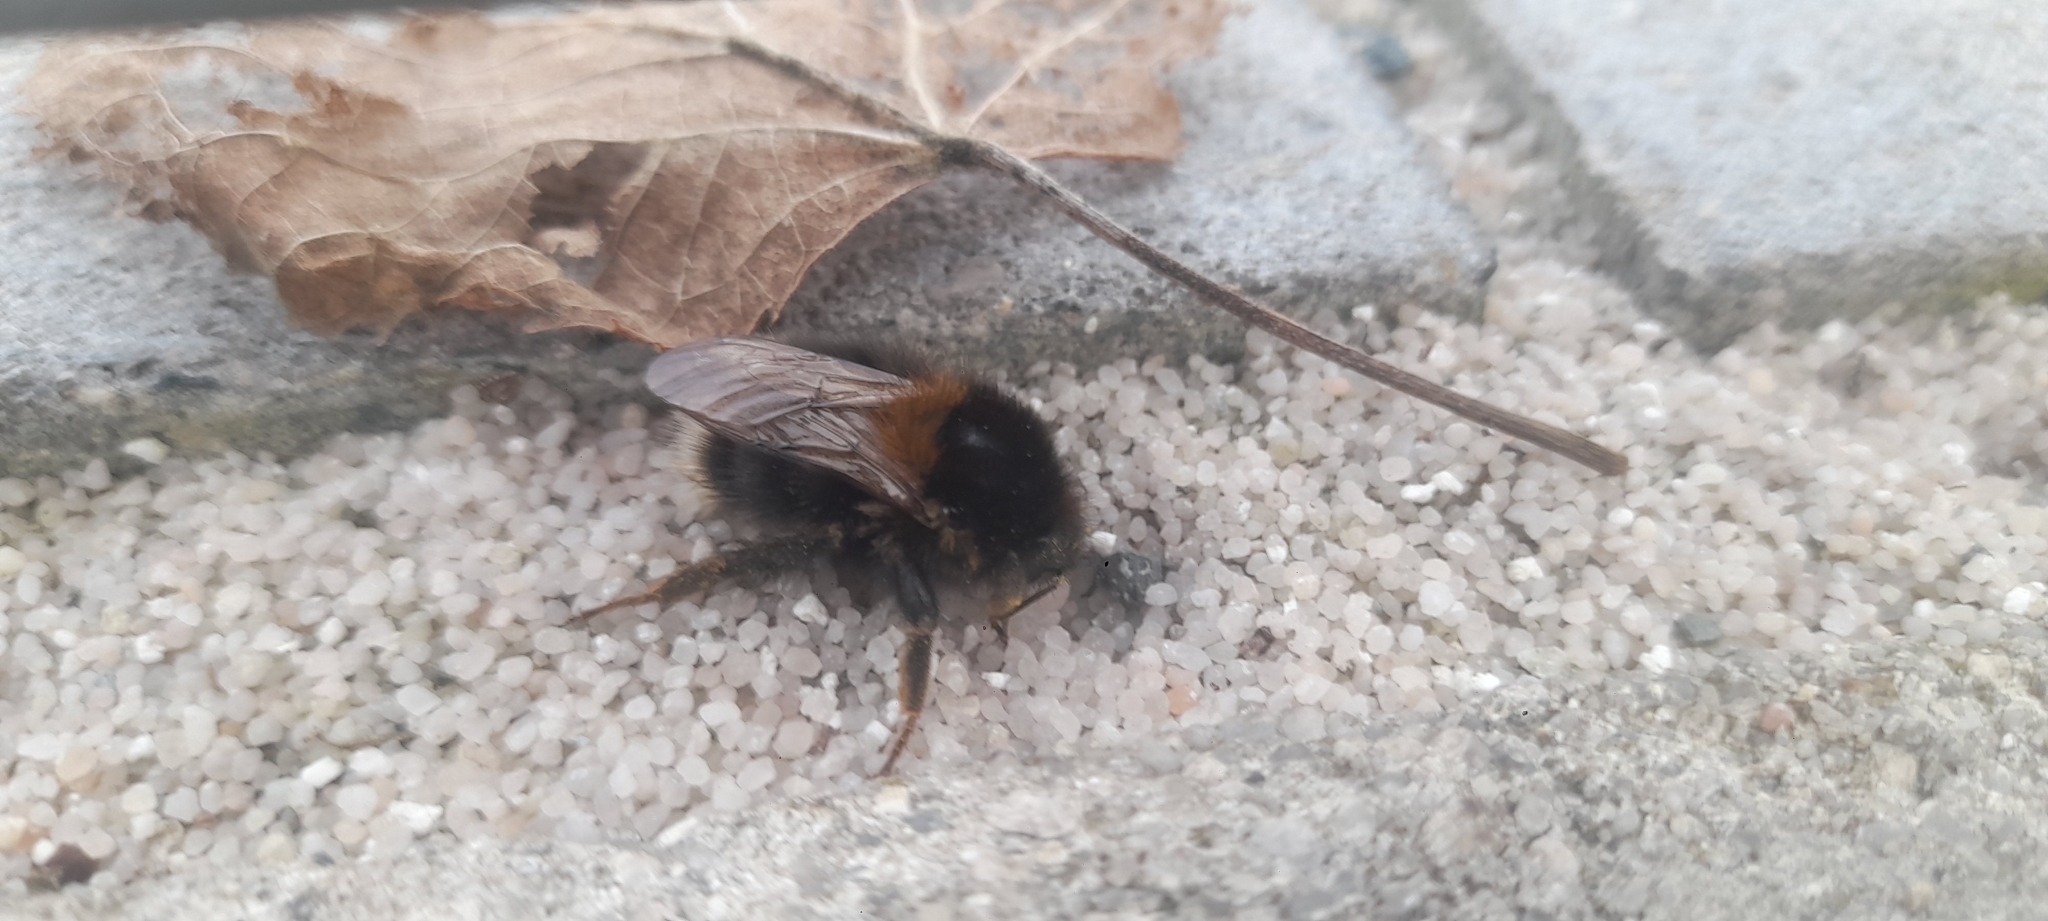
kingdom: Animalia
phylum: Arthropoda
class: Insecta
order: Hymenoptera
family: Apidae
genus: Bombus
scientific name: Bombus hypnorum
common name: New garden bumblebee
